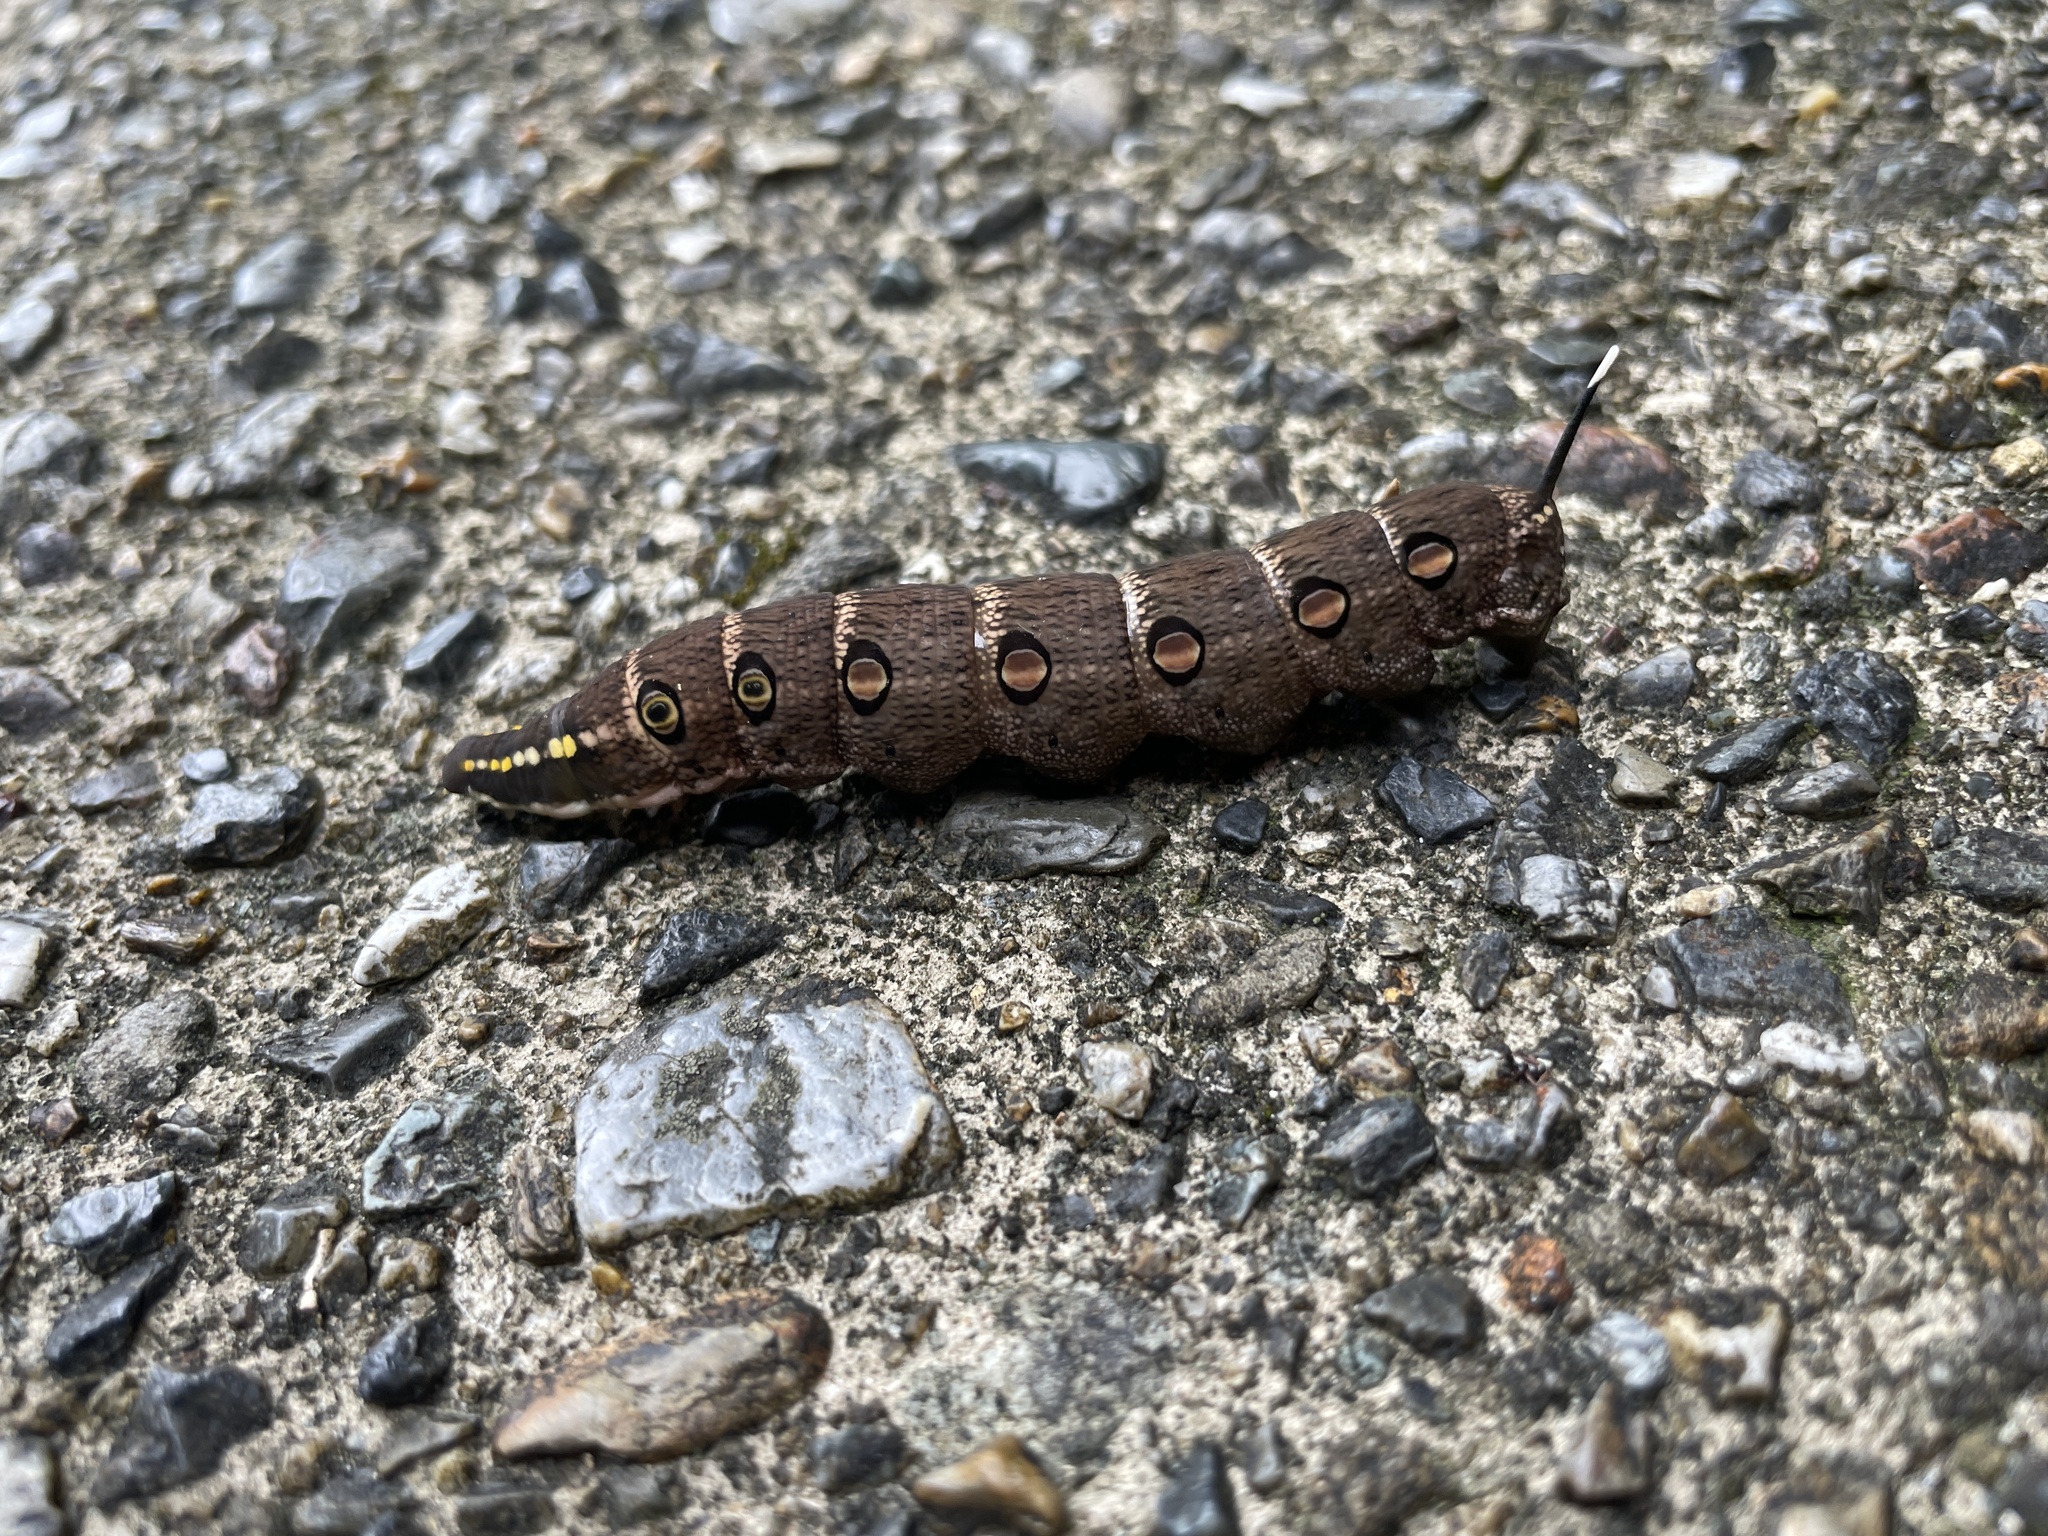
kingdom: Animalia
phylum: Arthropoda
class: Insecta
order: Lepidoptera
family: Sphingidae
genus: Theretra
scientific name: Theretra oldenlandiae
